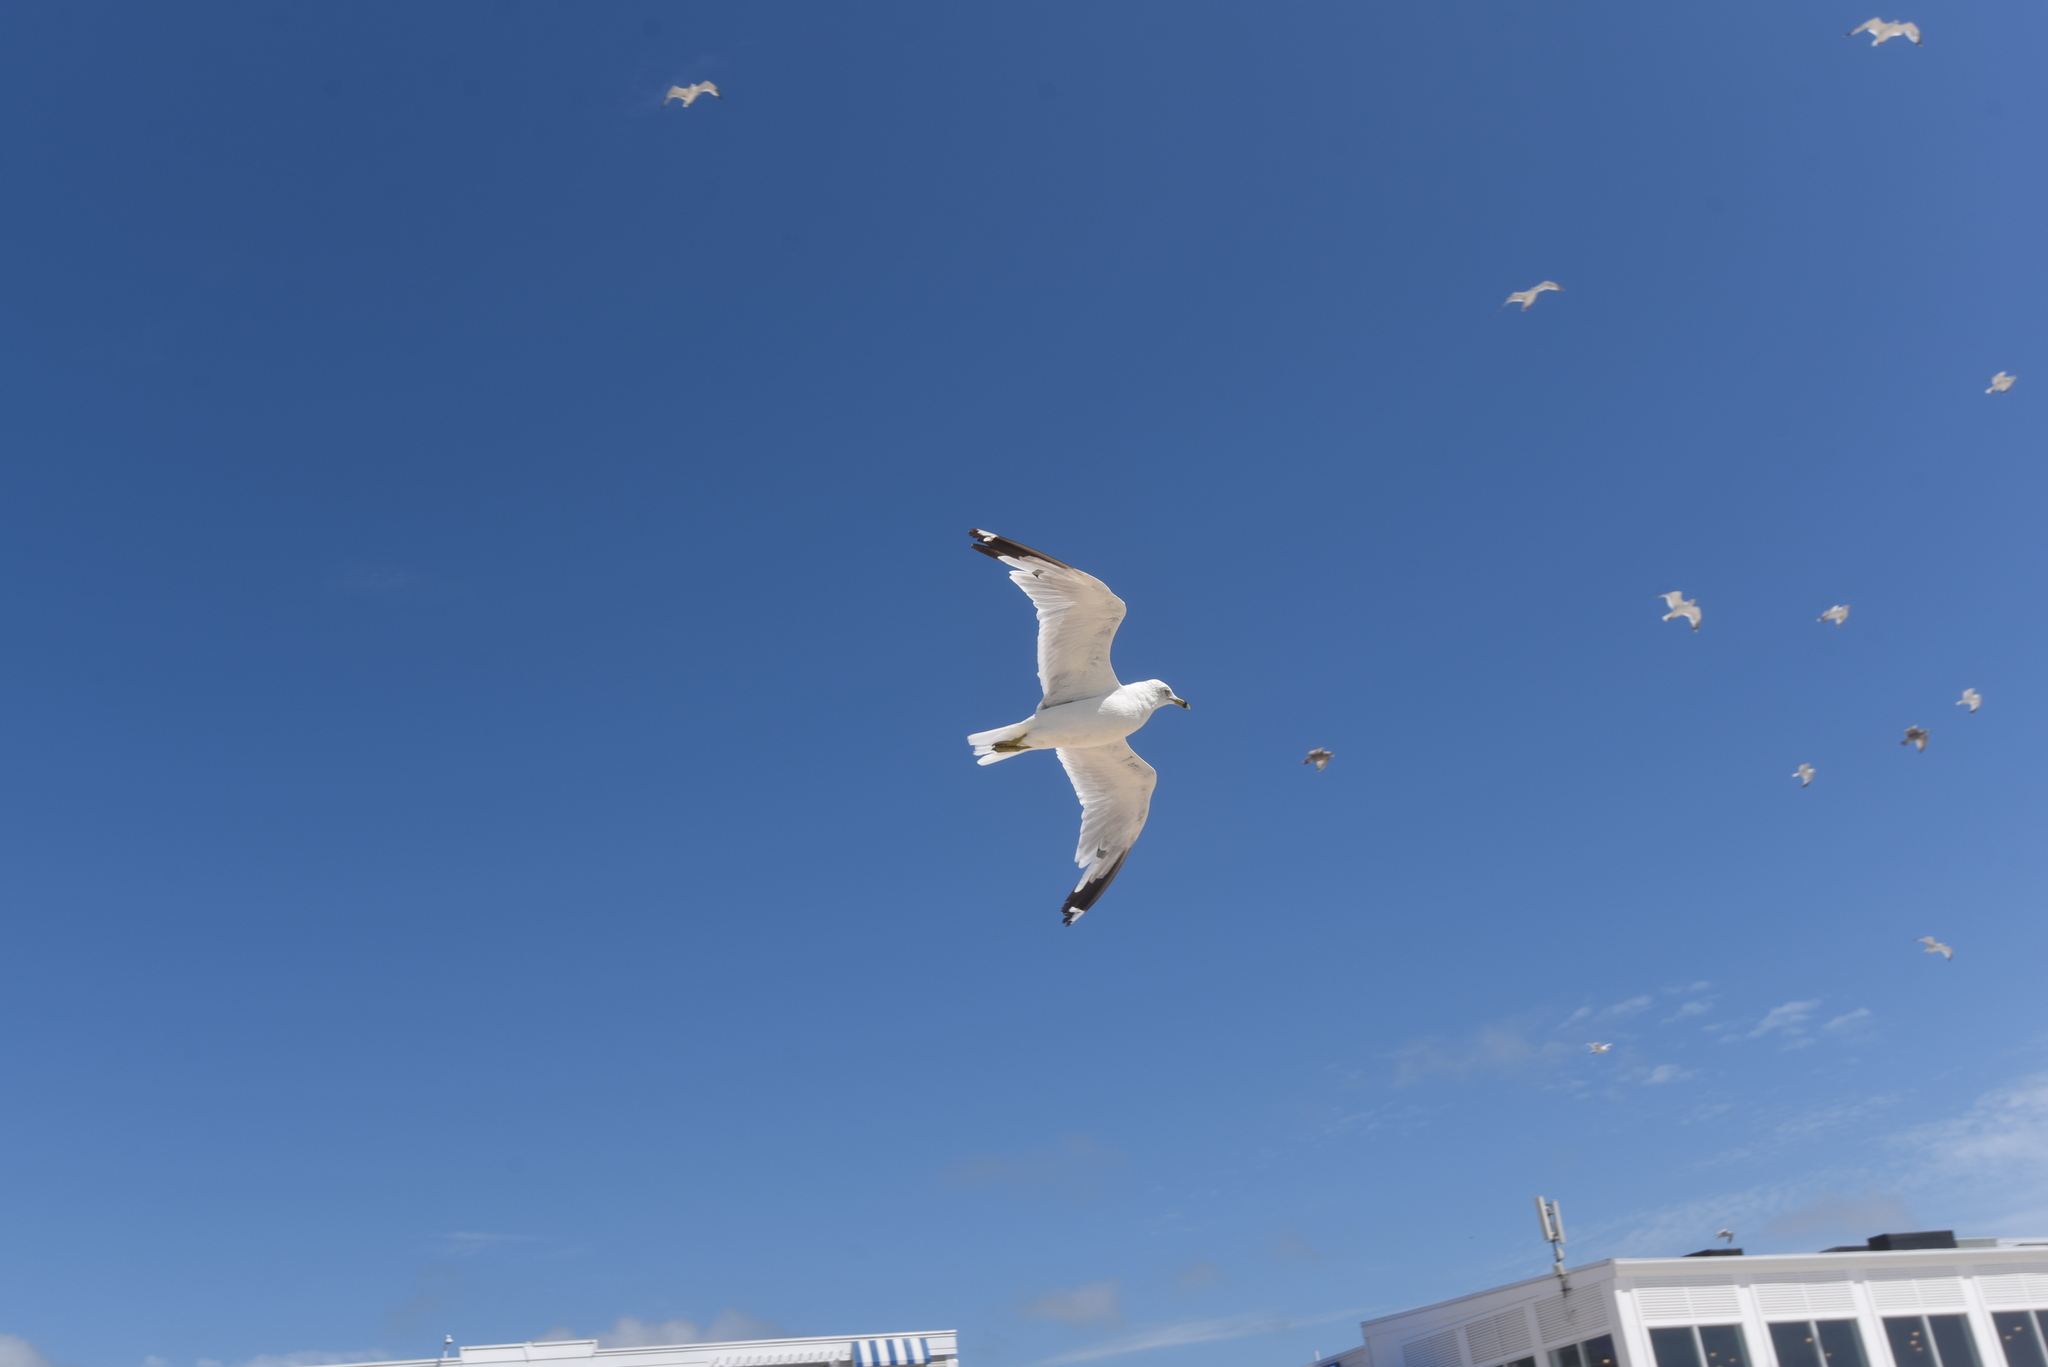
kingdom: Animalia
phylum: Chordata
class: Aves
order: Charadriiformes
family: Laridae
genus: Larus
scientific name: Larus delawarensis
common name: Ring-billed gull
